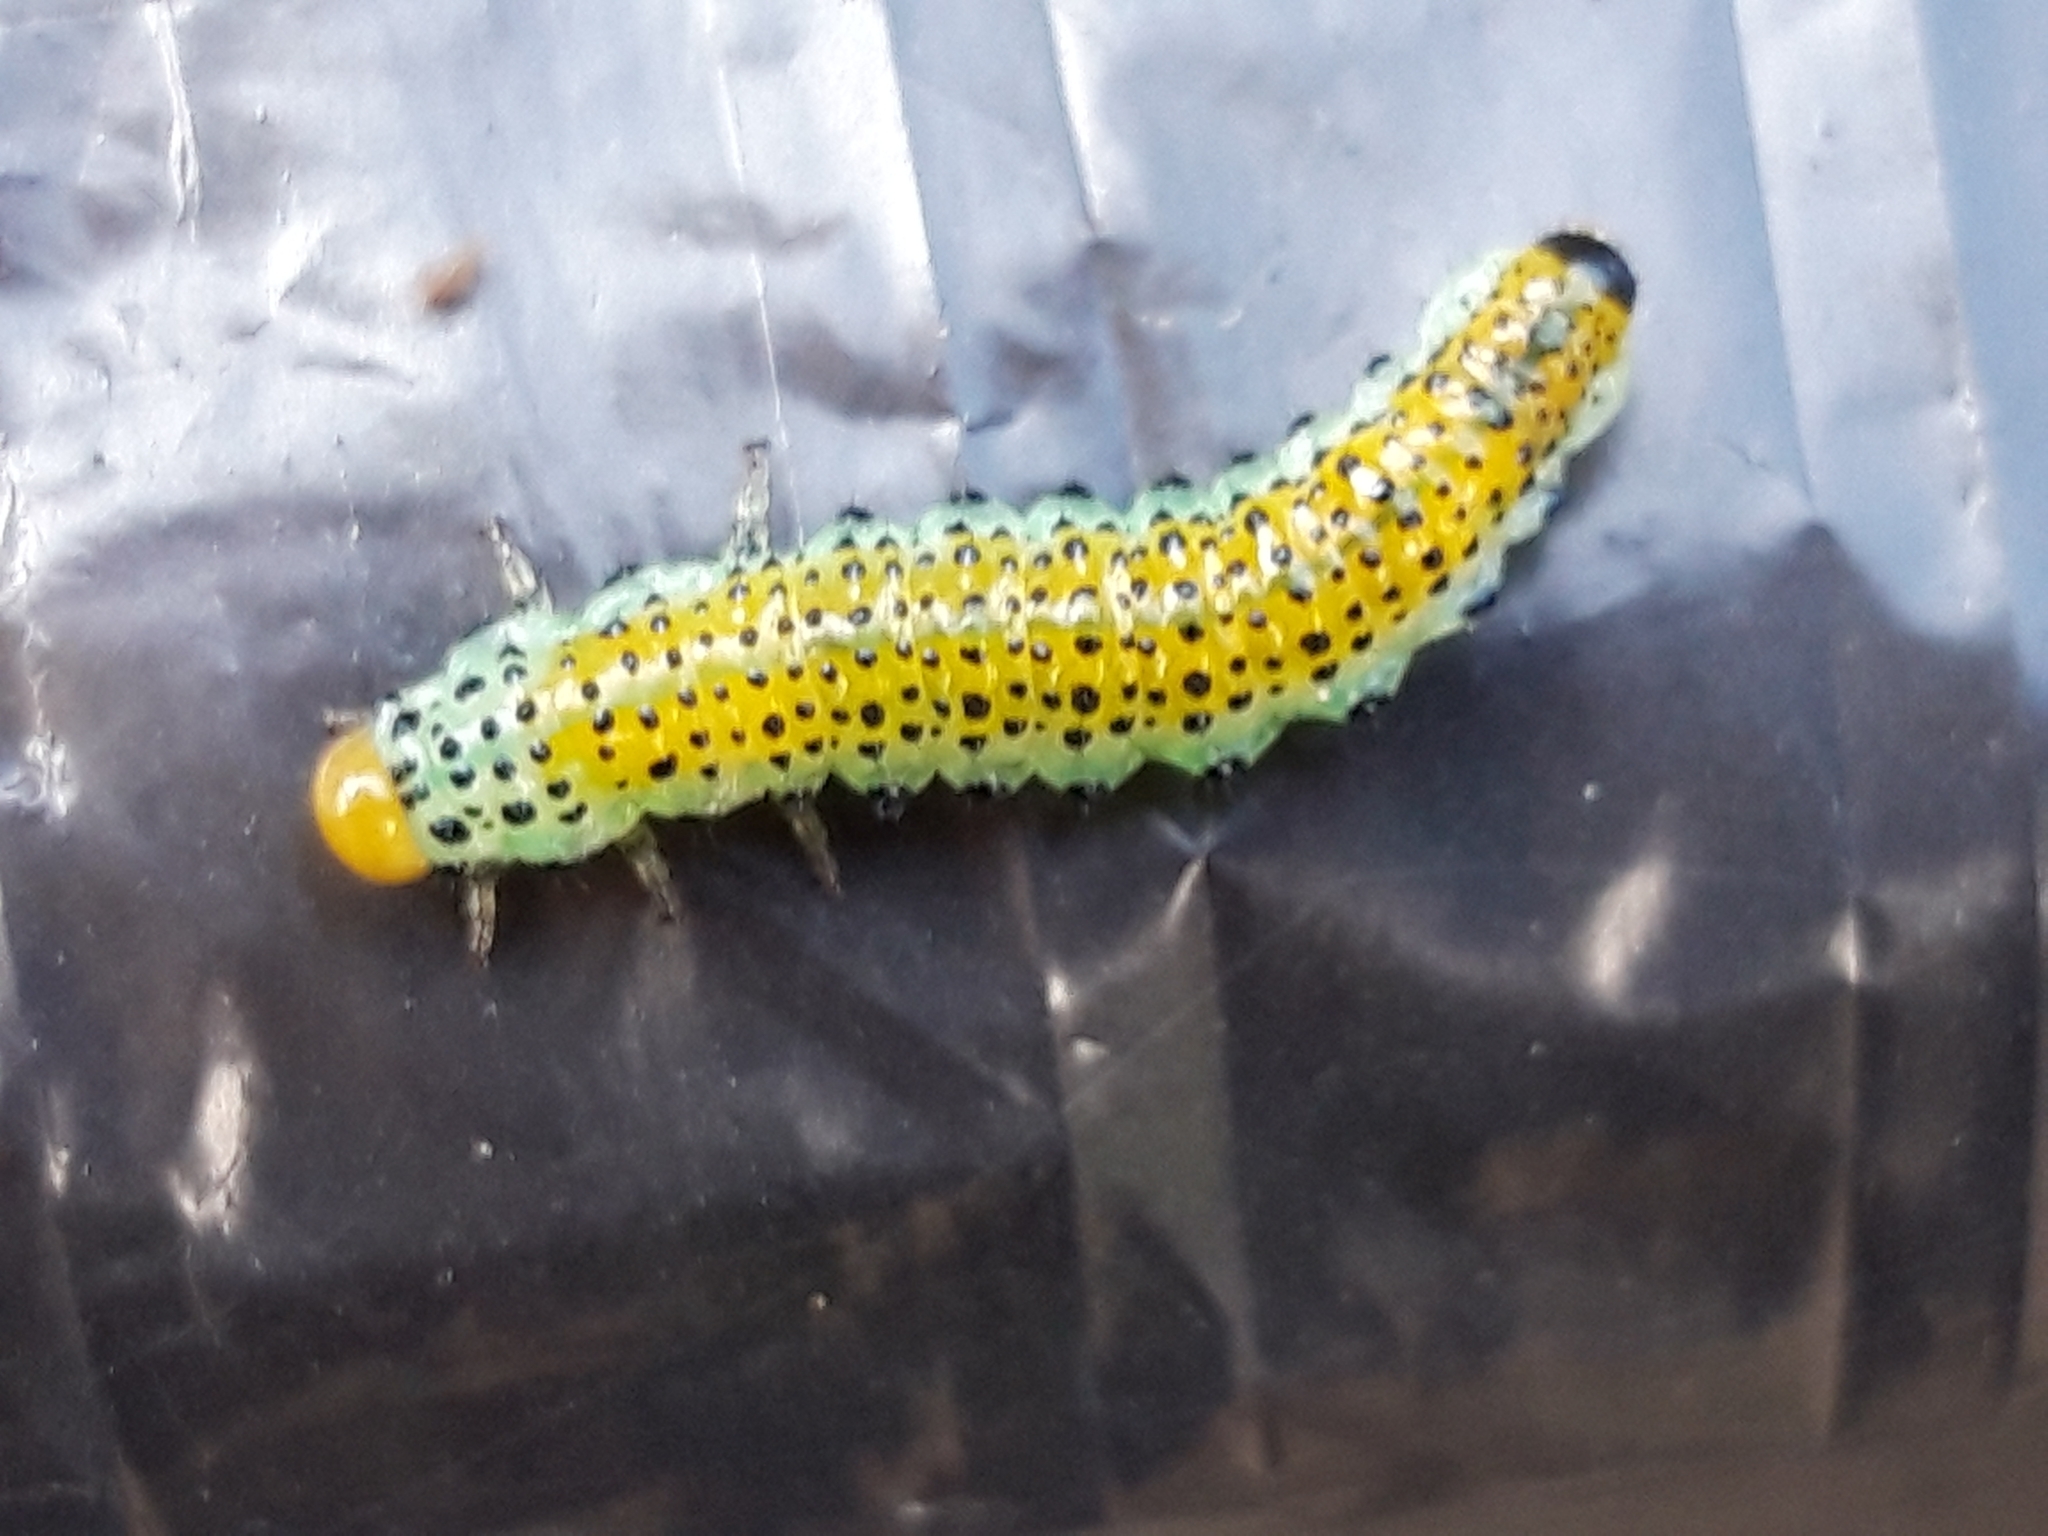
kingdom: Animalia
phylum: Arthropoda
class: Insecta
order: Hymenoptera
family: Argidae
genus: Arge
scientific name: Arge pagana
